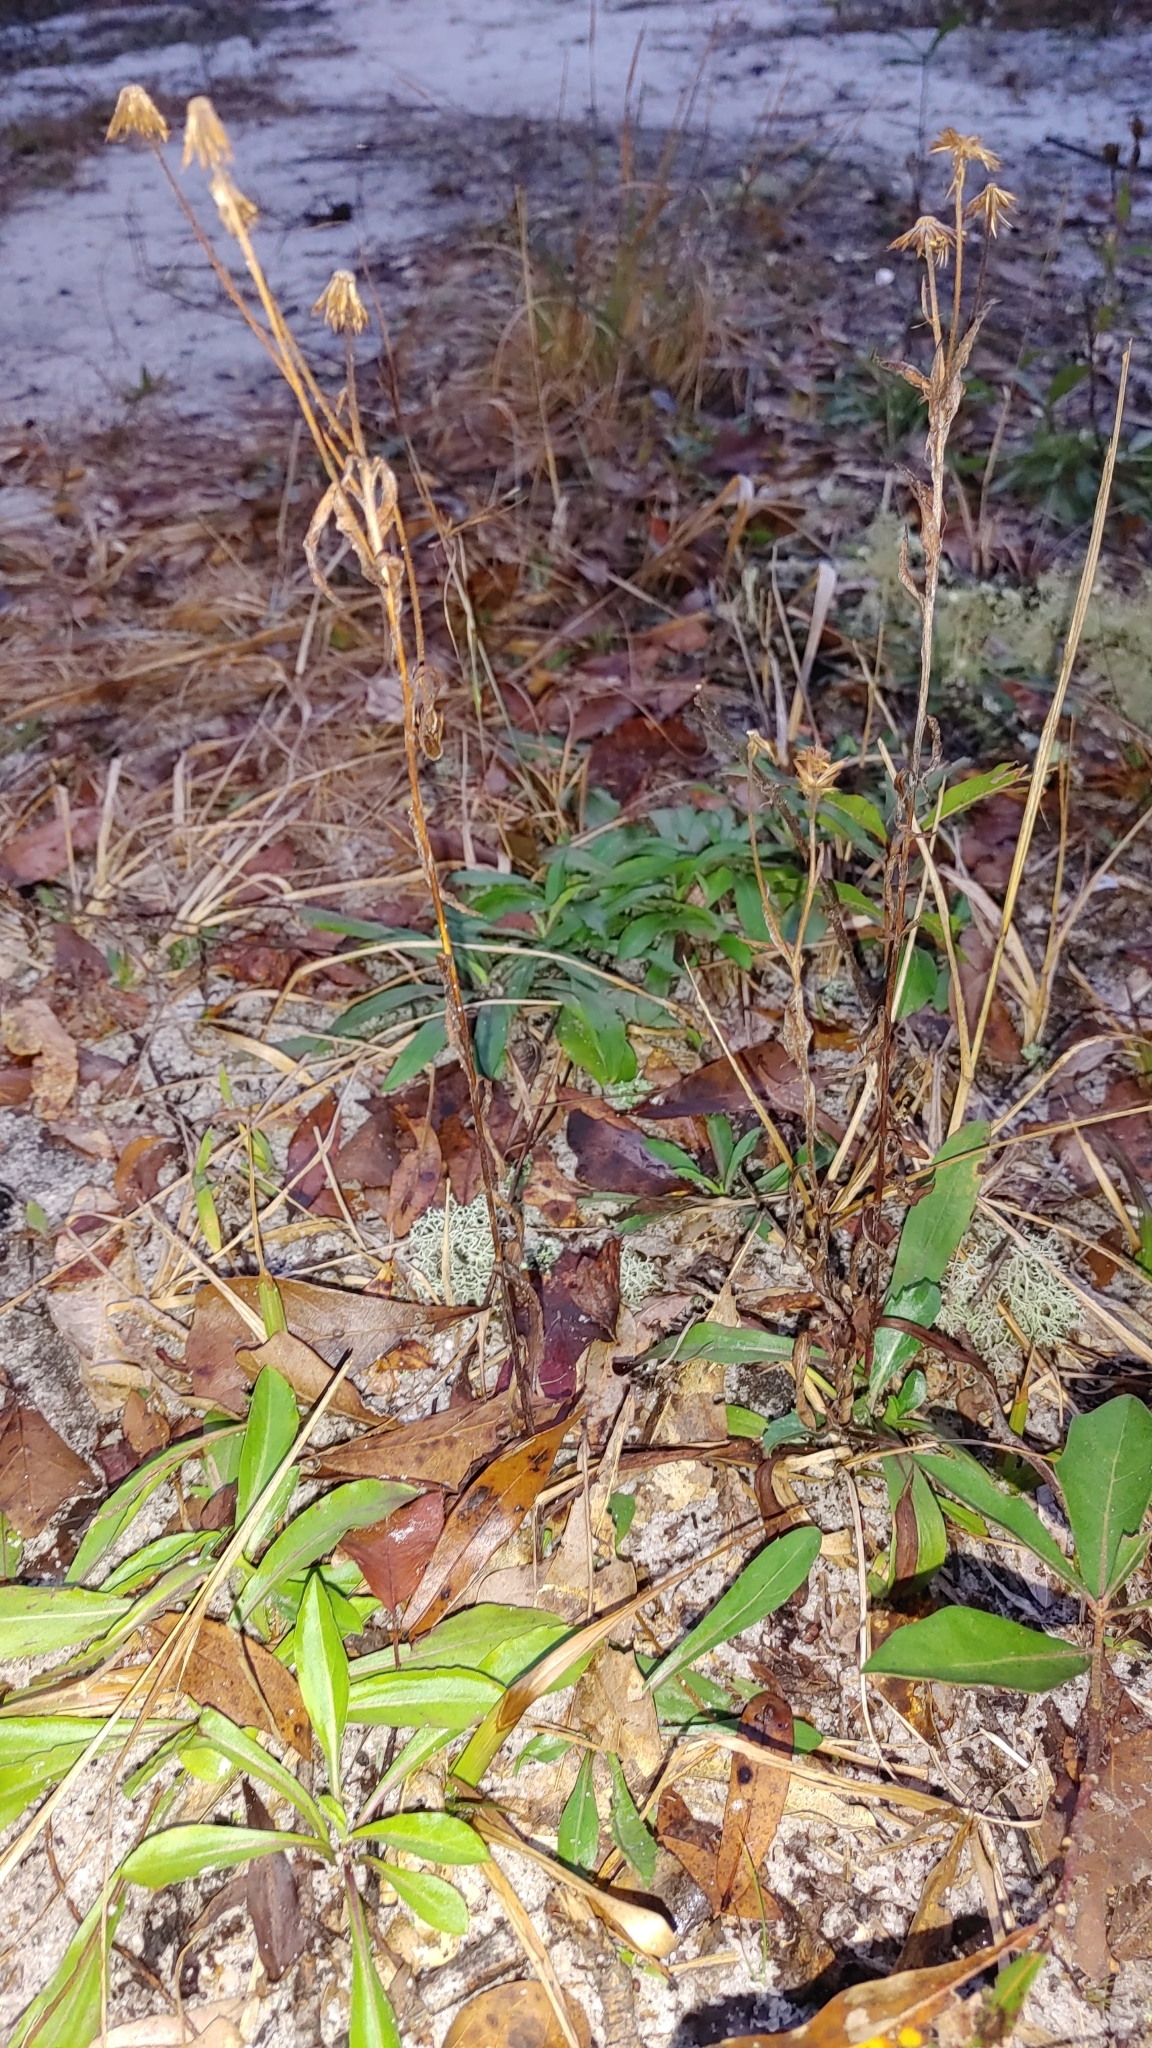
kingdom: Plantae
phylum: Tracheophyta
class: Magnoliopsida
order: Asterales
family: Asteraceae
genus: Chrysopsis
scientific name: Chrysopsis mariana
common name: Maryland golden-aster
